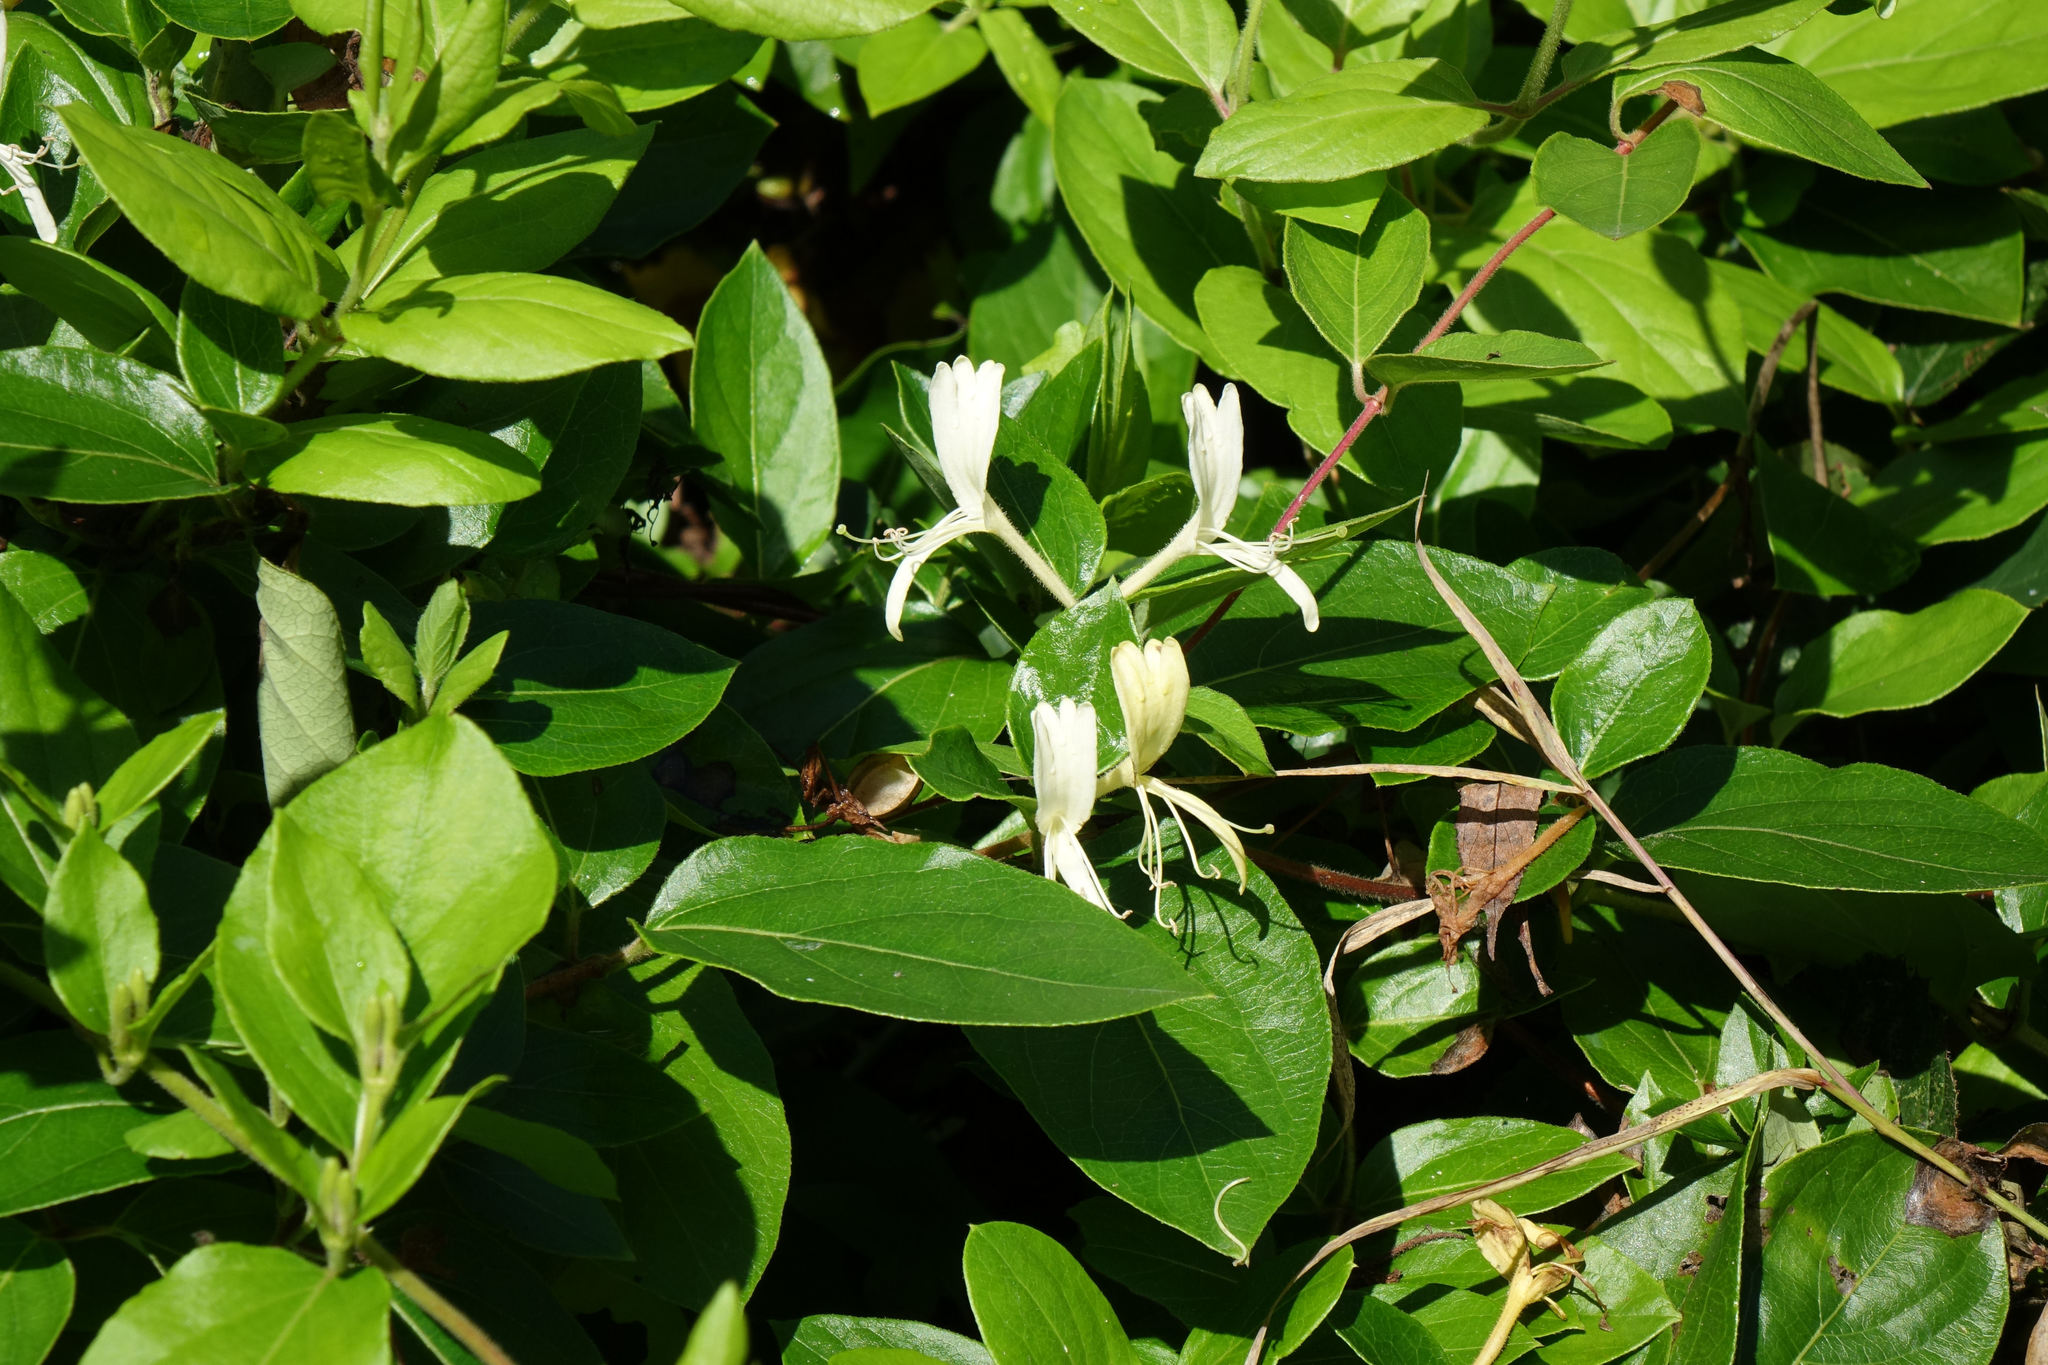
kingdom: Plantae
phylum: Tracheophyta
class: Magnoliopsida
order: Dipsacales
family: Caprifoliaceae
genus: Lonicera
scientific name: Lonicera japonica
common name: Japanese honeysuckle
